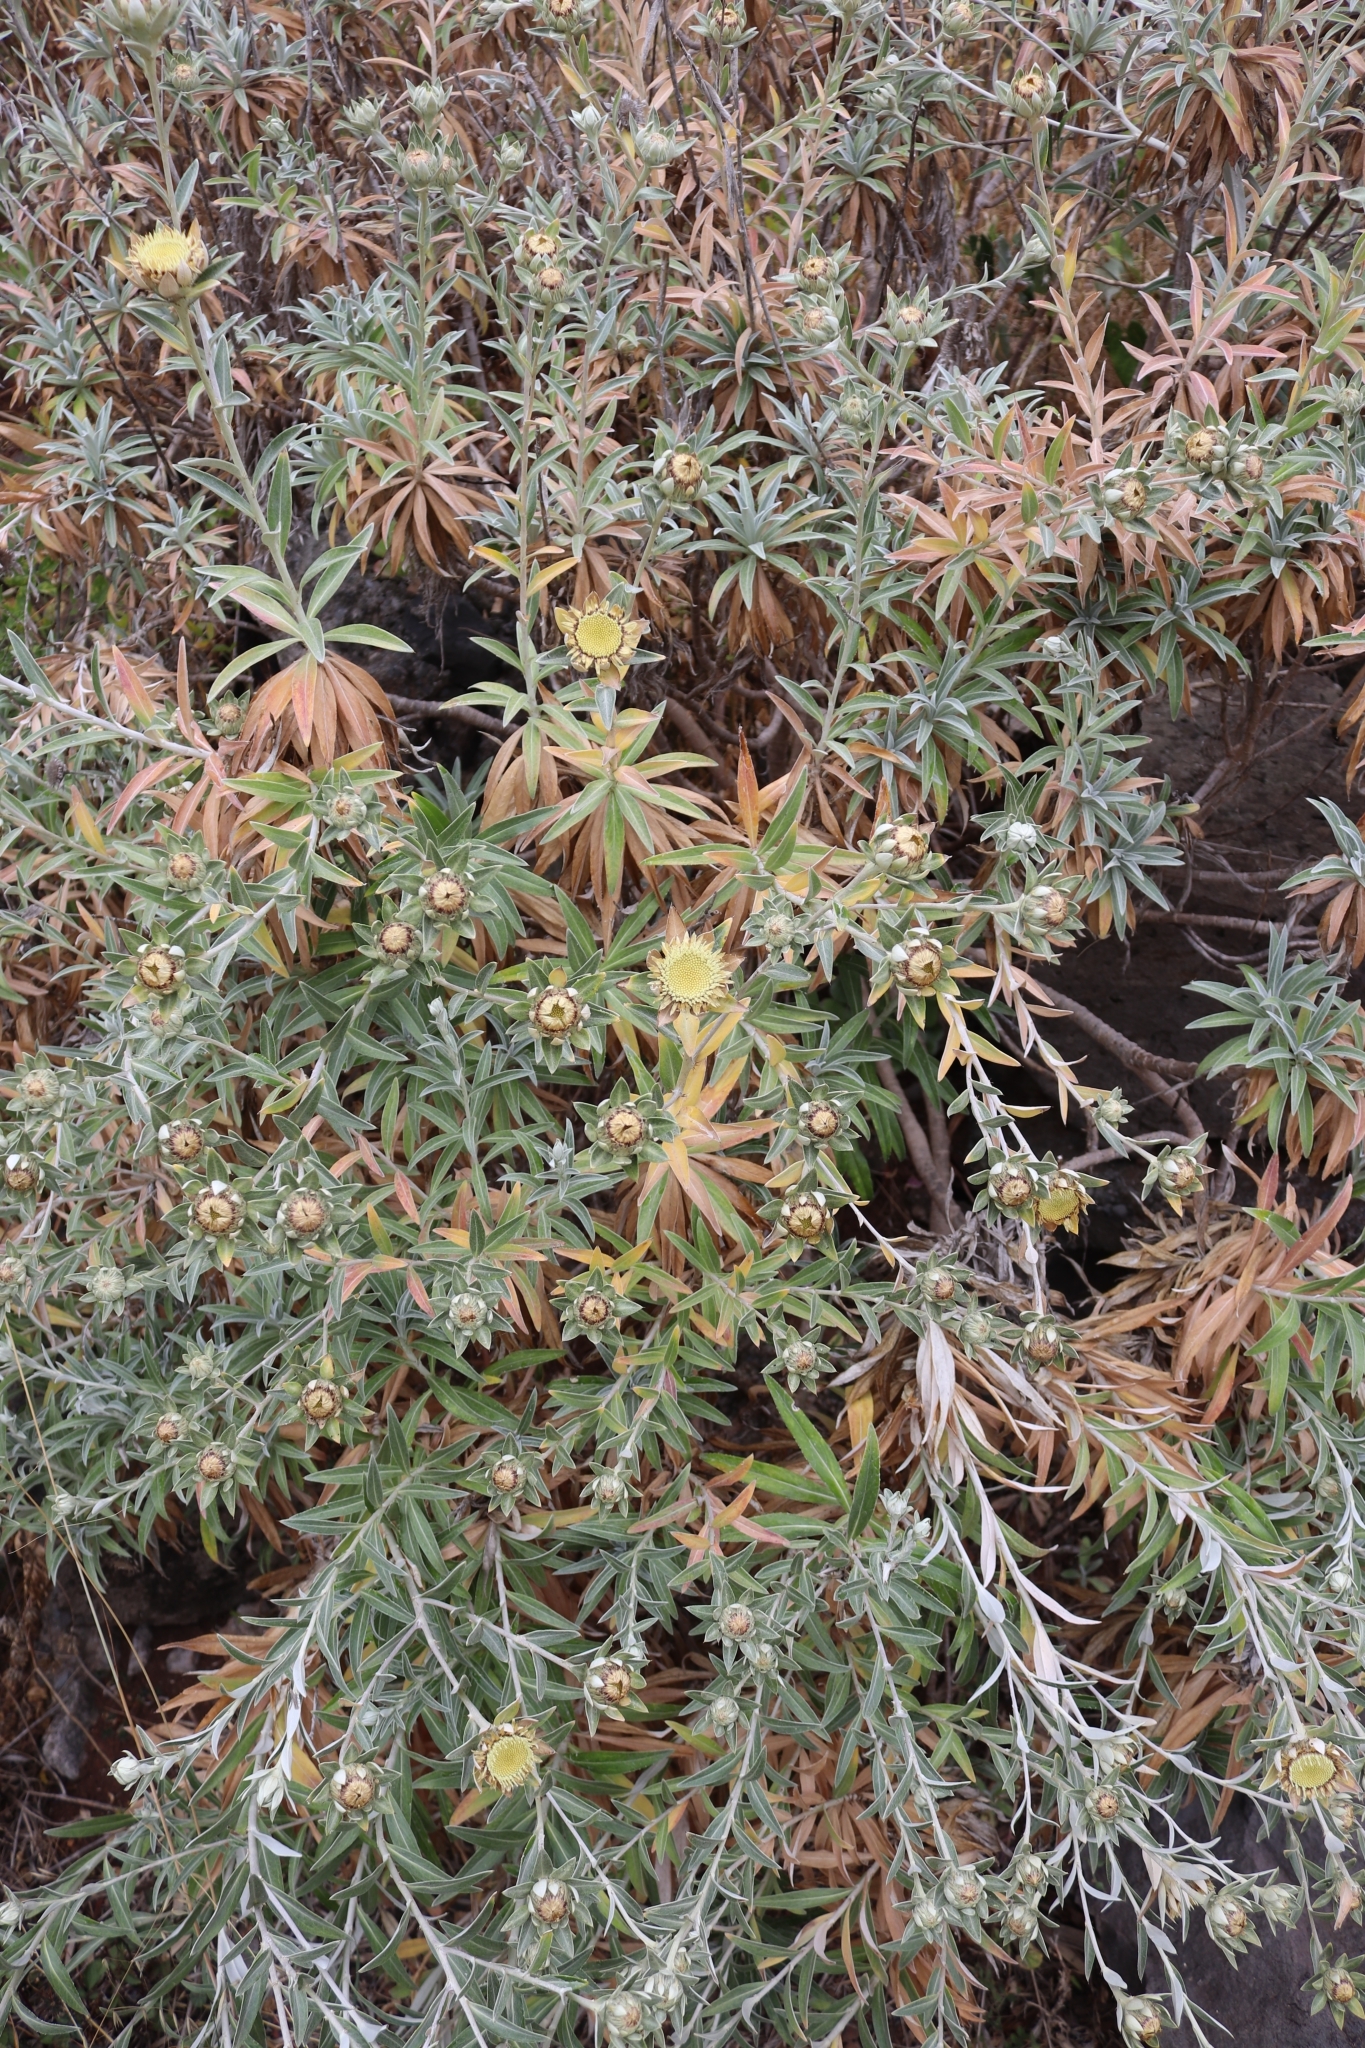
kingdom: Plantae
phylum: Tracheophyta
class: Magnoliopsida
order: Asterales
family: Asteraceae
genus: Carlina
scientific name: Carlina salicifolia
